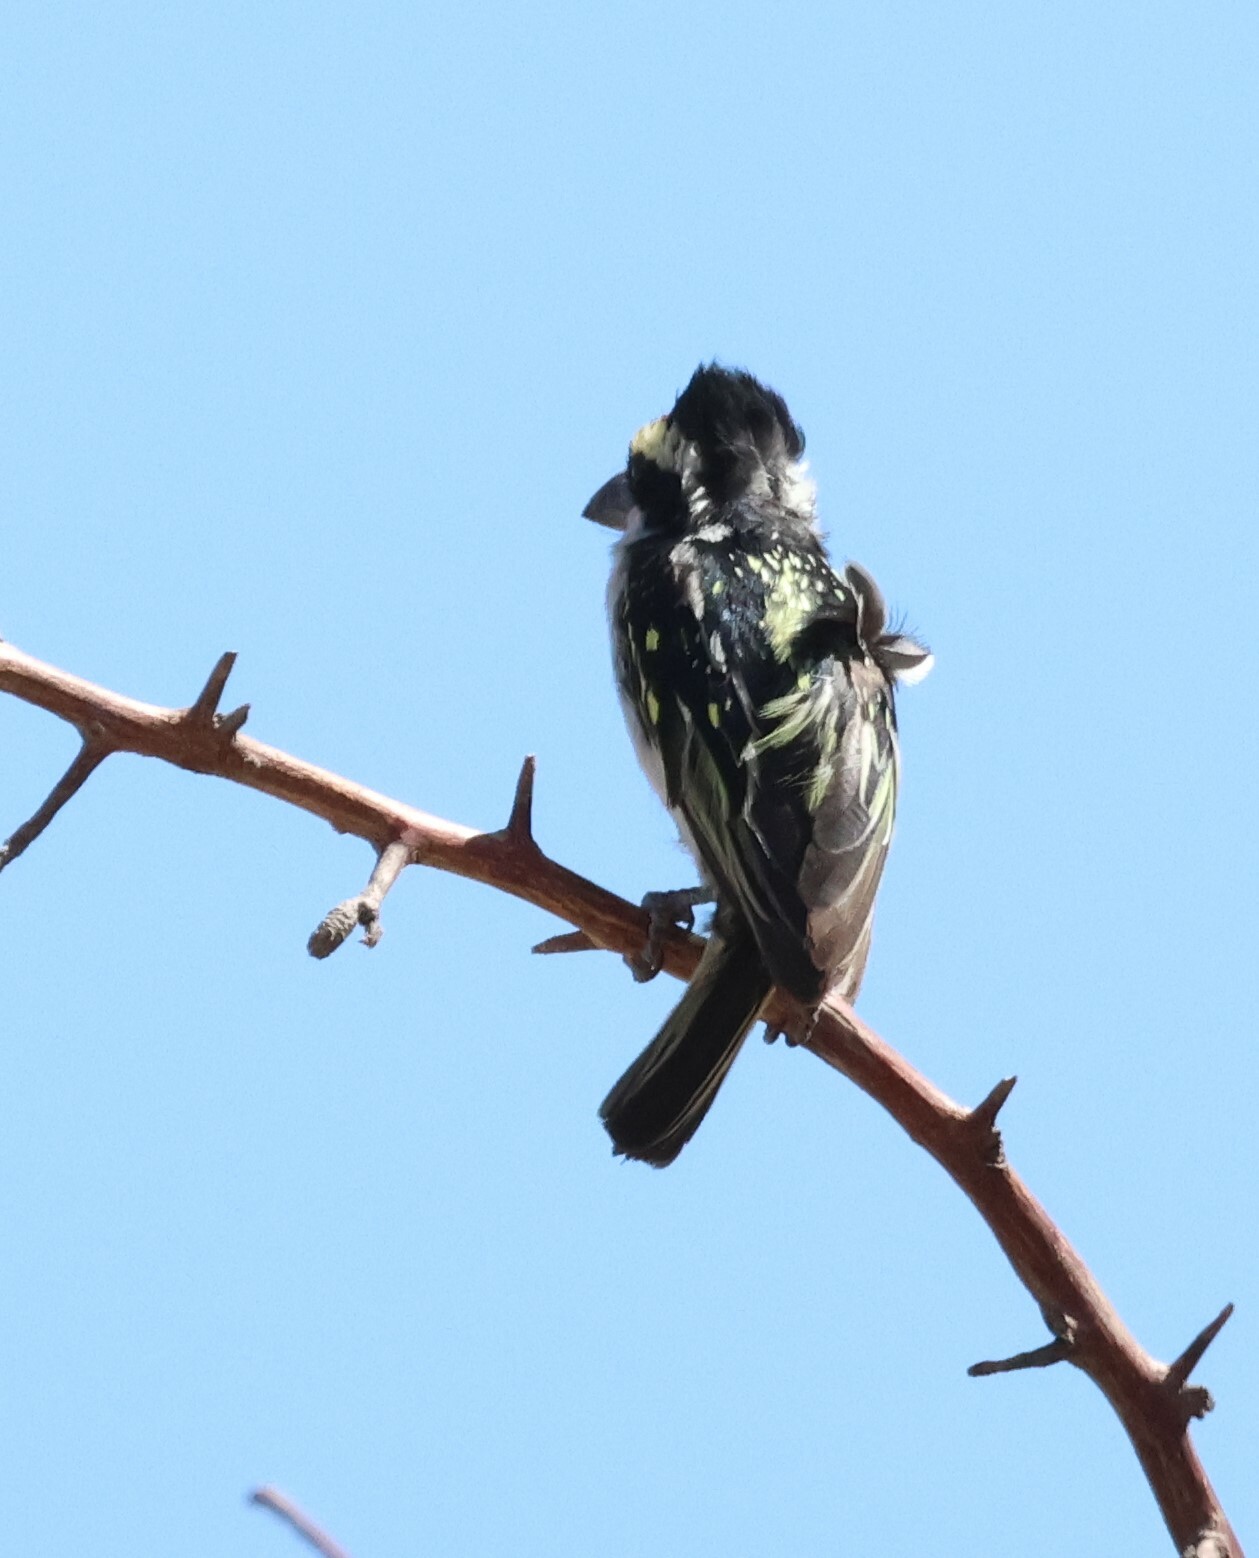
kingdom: Animalia
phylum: Chordata
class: Aves
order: Piciformes
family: Lybiidae
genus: Tricholaema
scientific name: Tricholaema leucomelas
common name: Acacia pied barbet
